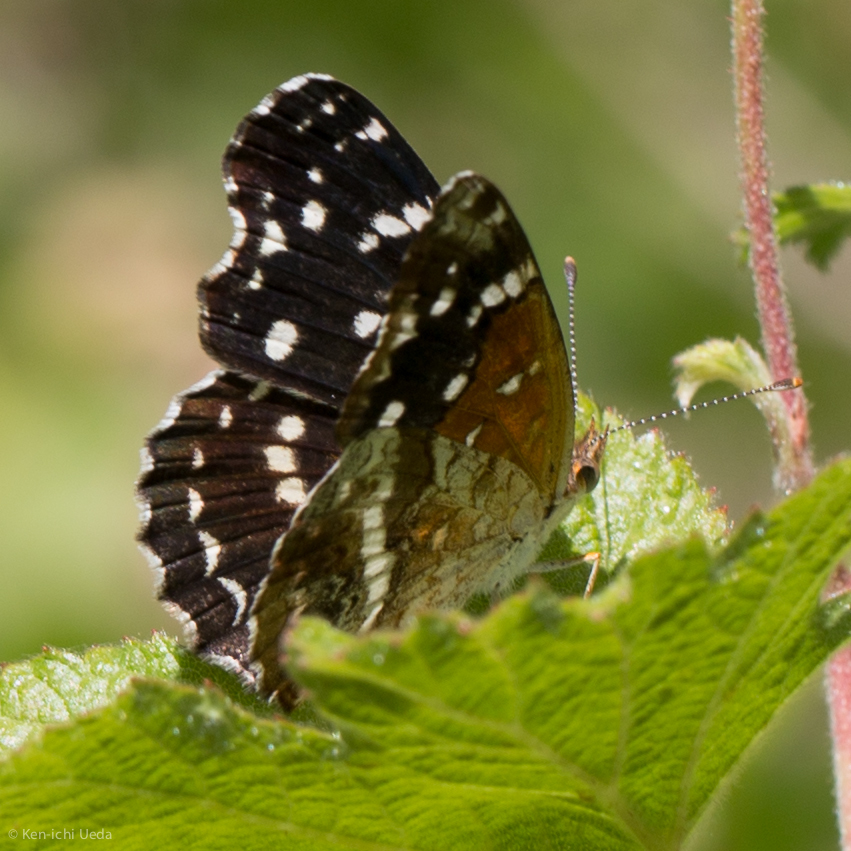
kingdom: Animalia
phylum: Arthropoda
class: Insecta
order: Lepidoptera
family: Nymphalidae
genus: Anthanassa
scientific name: Anthanassa texana
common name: Texan crescent
